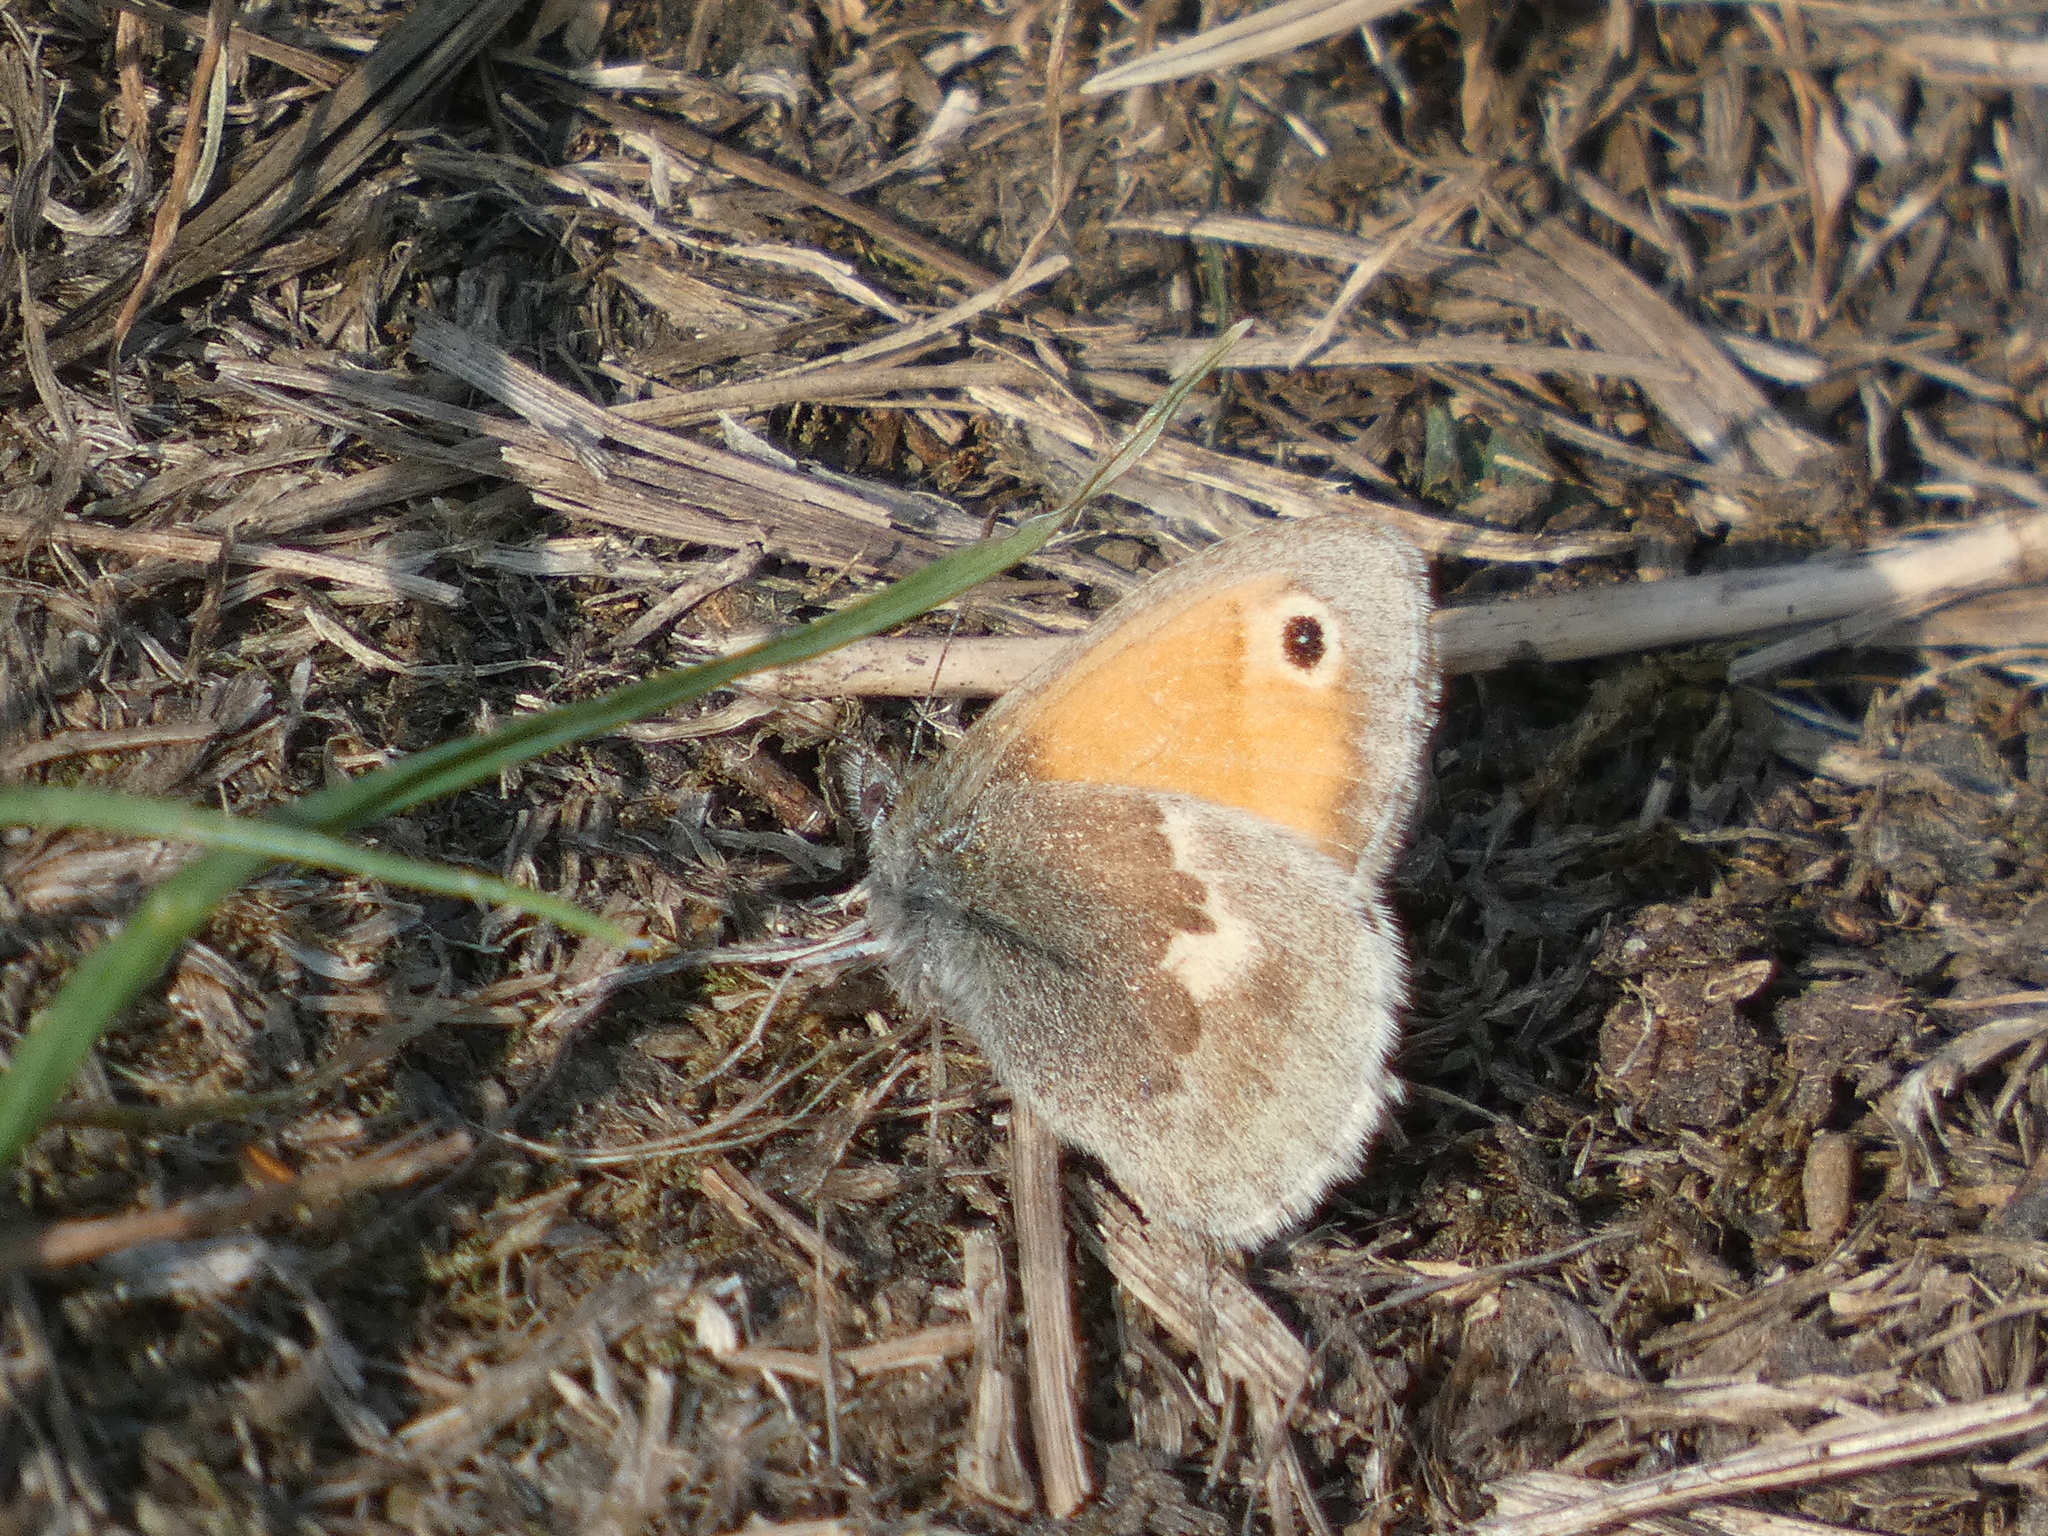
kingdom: Animalia
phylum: Arthropoda
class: Insecta
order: Lepidoptera
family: Nymphalidae
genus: Coenonympha
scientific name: Coenonympha pamphilus
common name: Small heath
